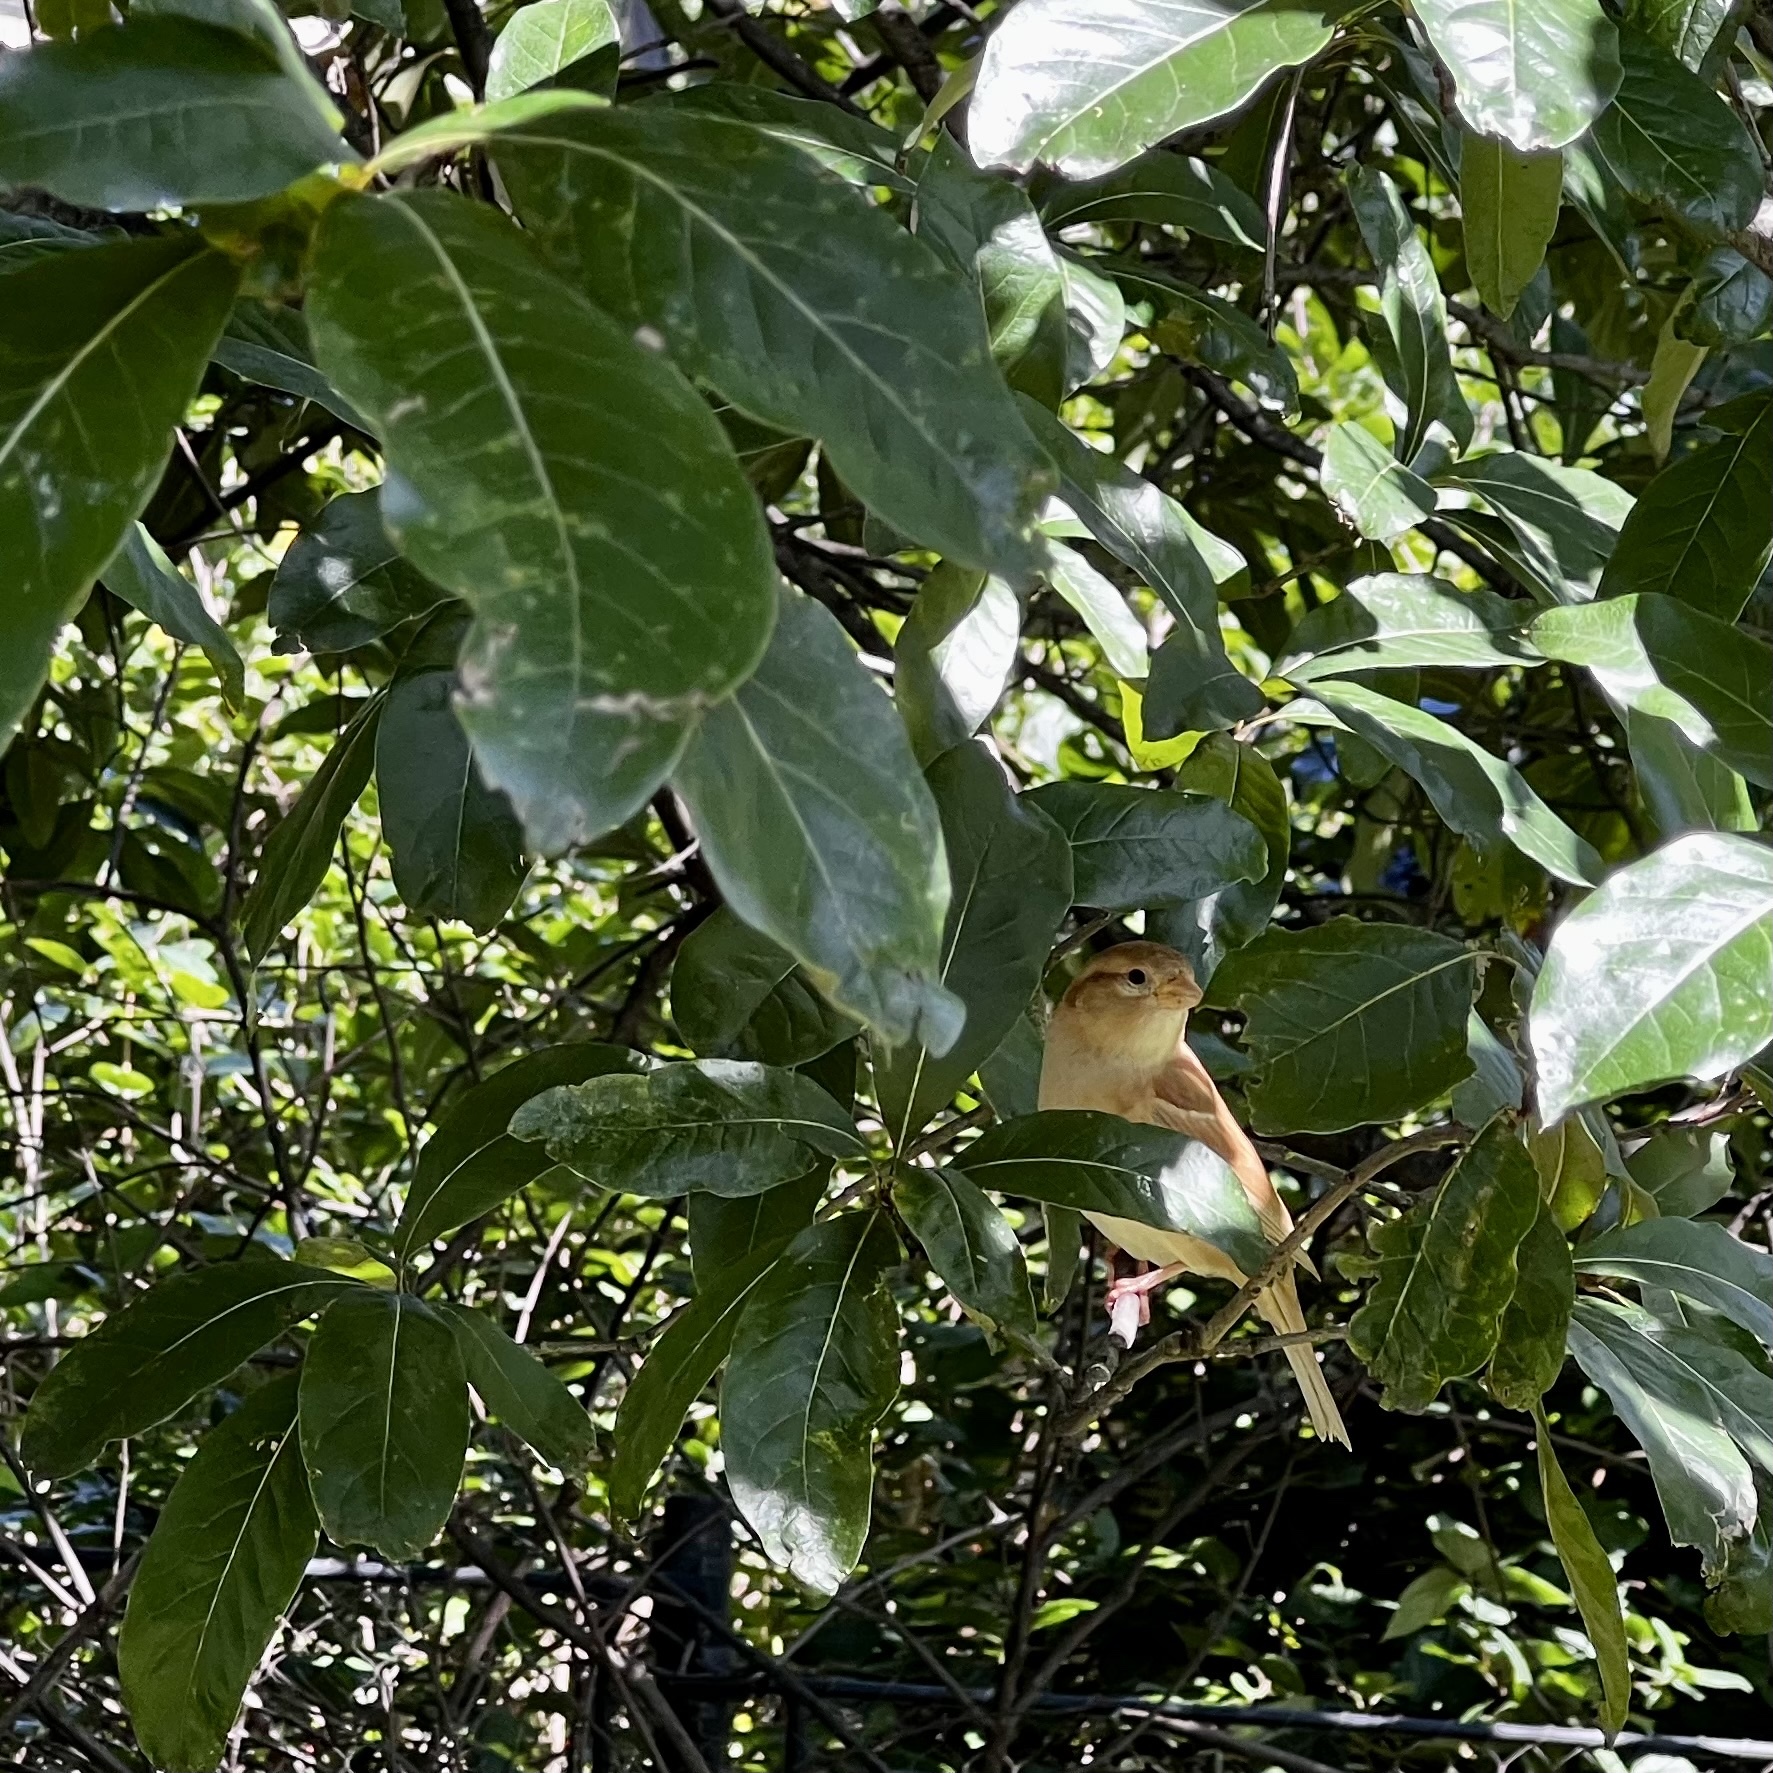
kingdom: Animalia
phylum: Chordata
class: Aves
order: Passeriformes
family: Passeridae
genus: Passer
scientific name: Passer domesticus
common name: House sparrow
